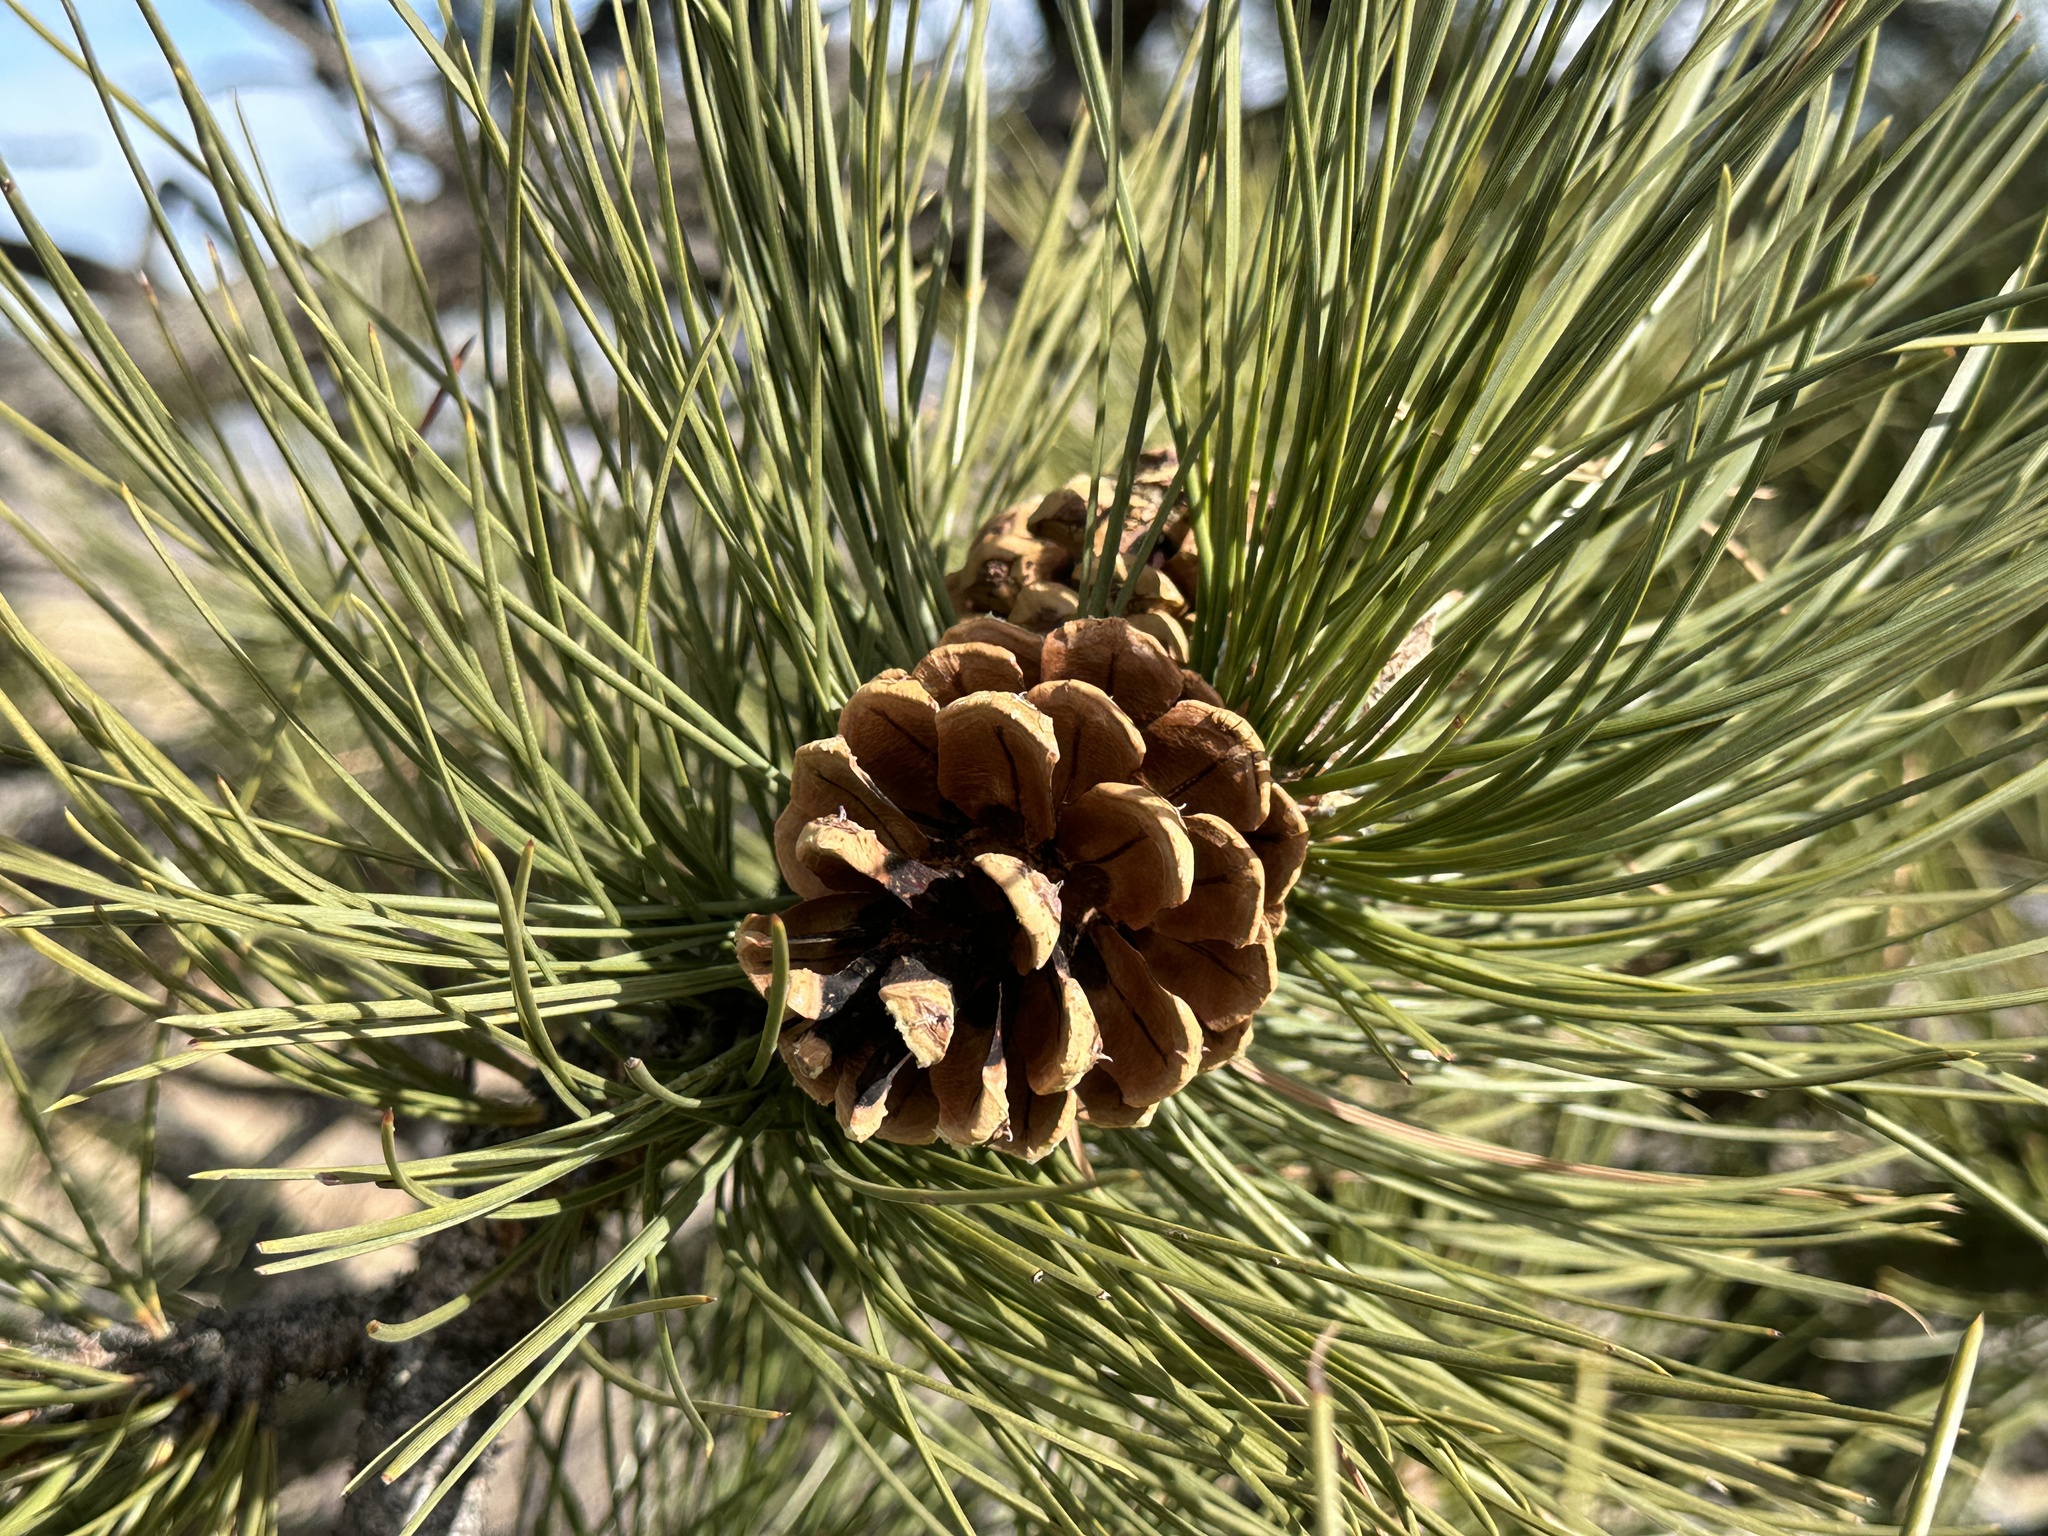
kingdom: Plantae
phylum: Tracheophyta
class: Pinopsida
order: Pinales
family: Pinaceae
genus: Pinus
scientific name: Pinus ponderosa
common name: Western yellow-pine
